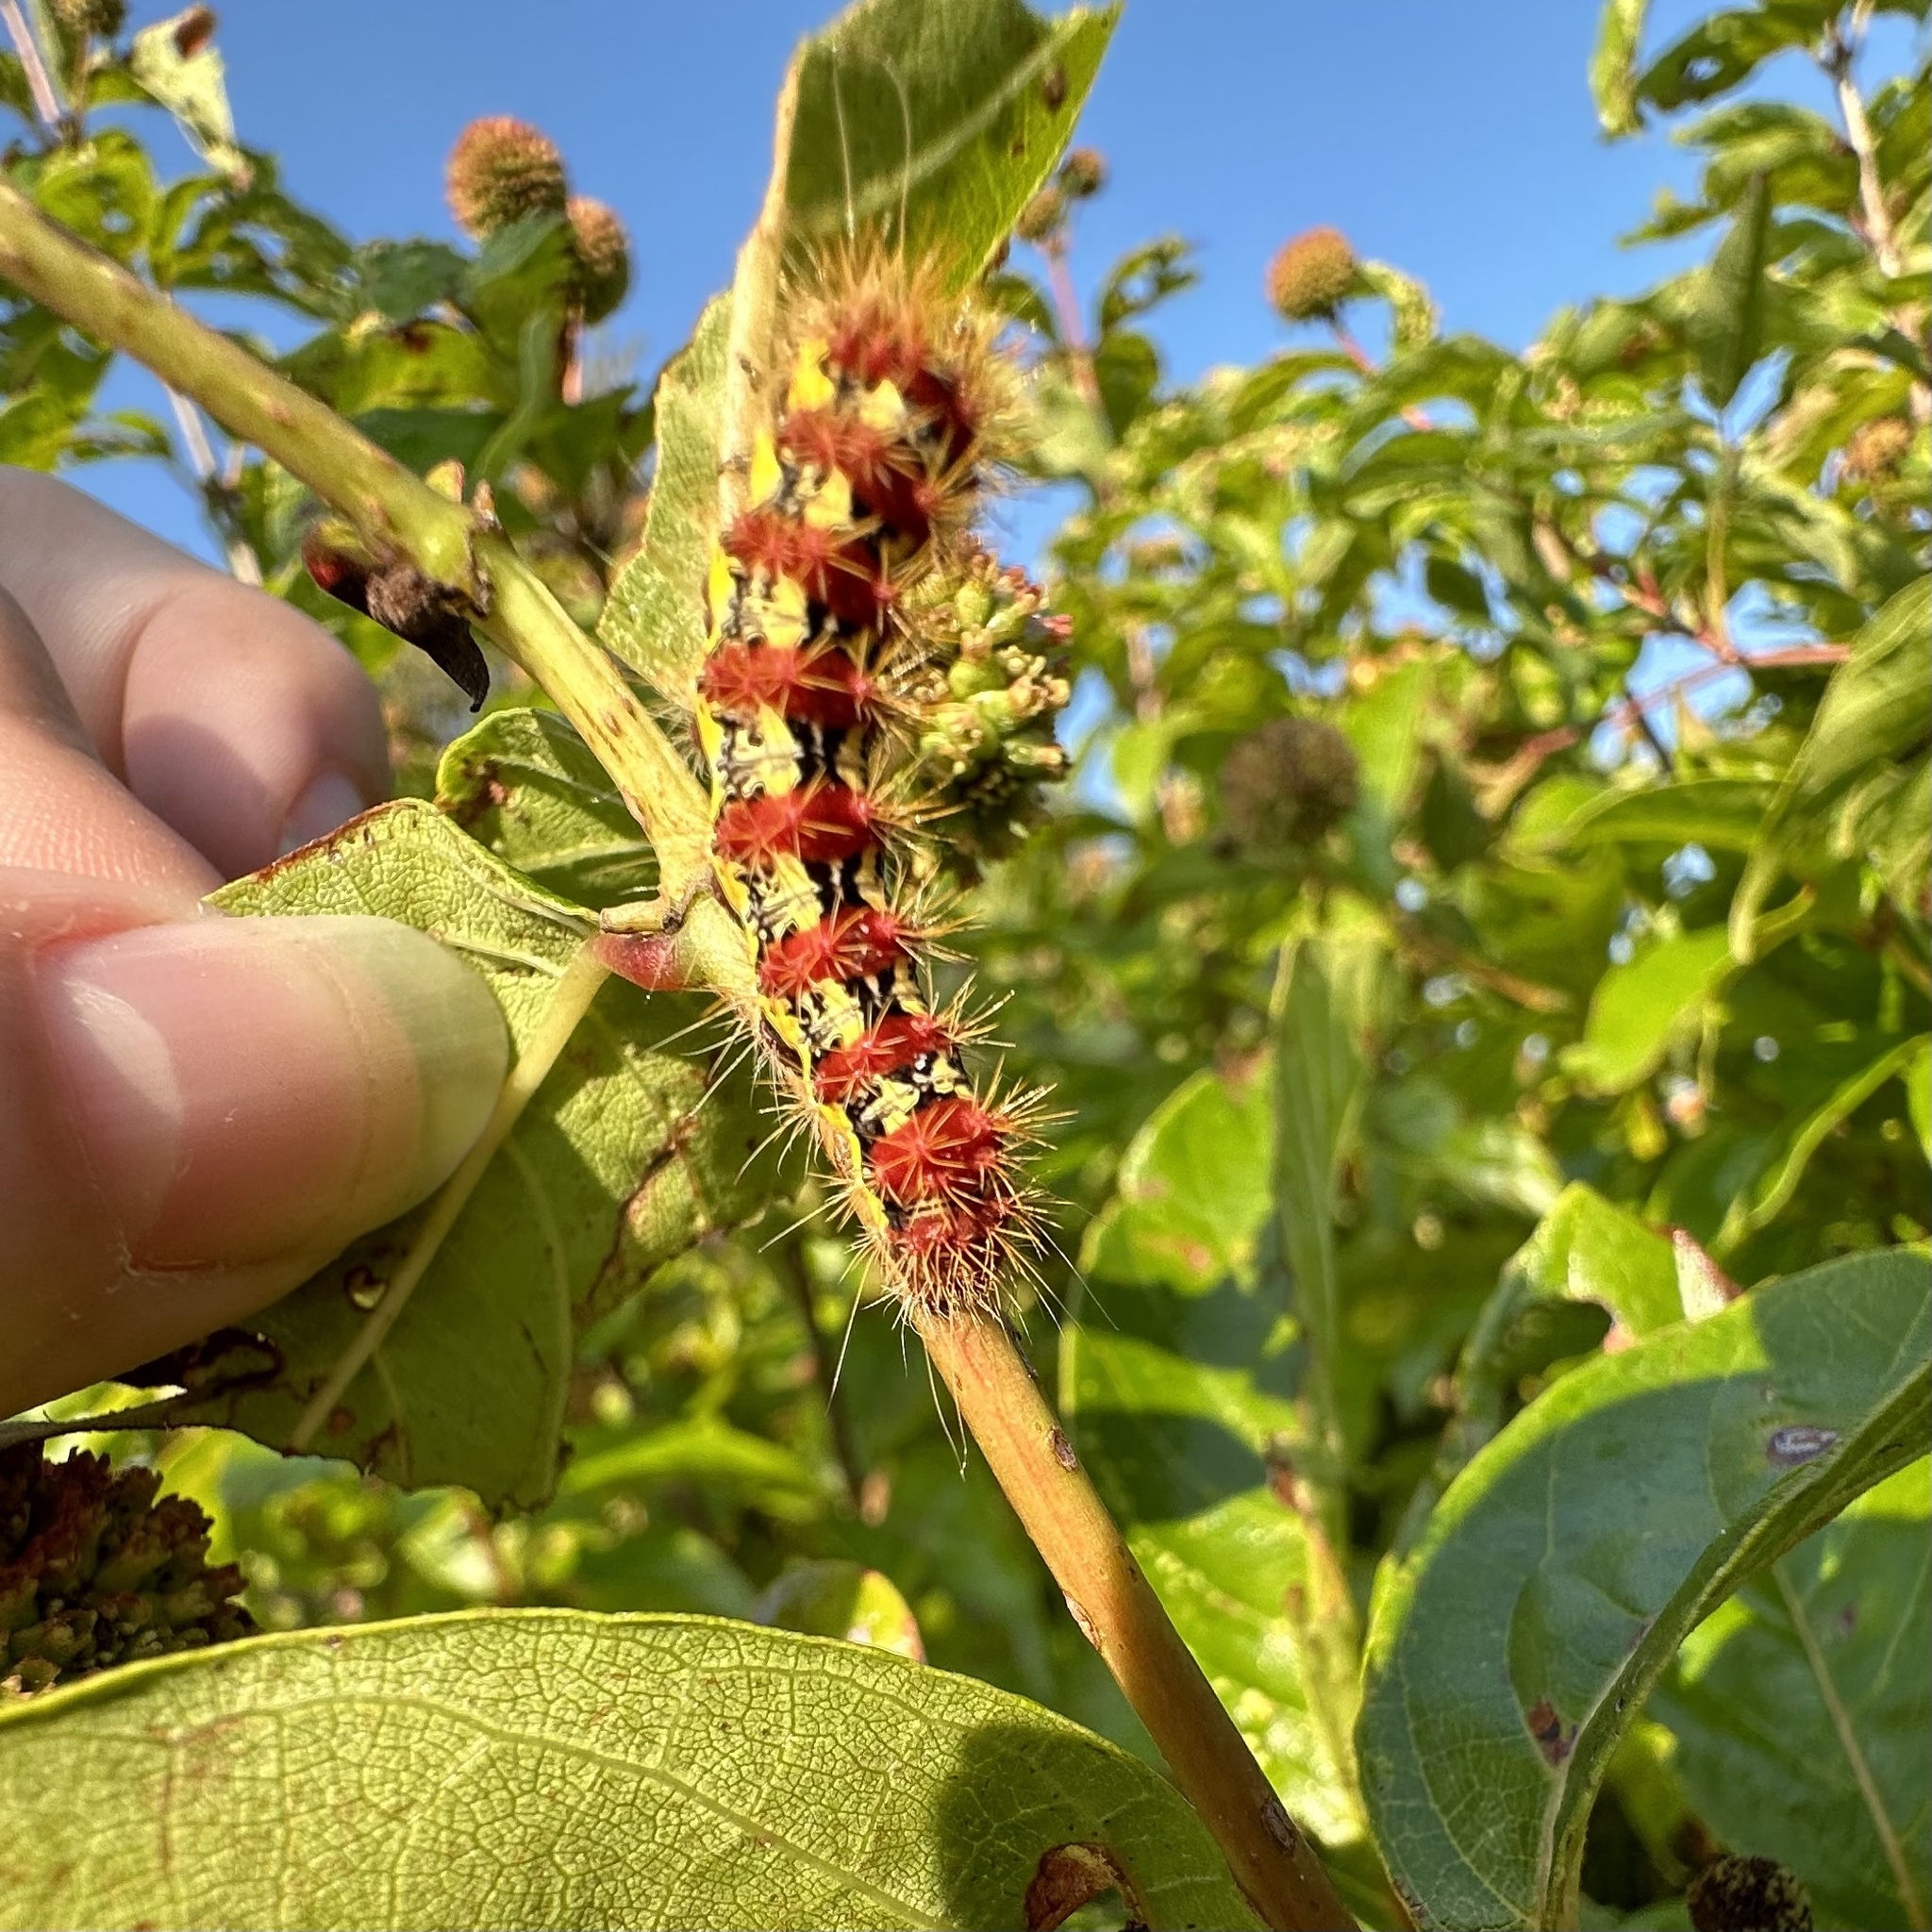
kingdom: Animalia
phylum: Arthropoda
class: Insecta
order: Lepidoptera
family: Noctuidae
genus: Acronicta
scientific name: Acronicta oblinita
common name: Smeared dagger
